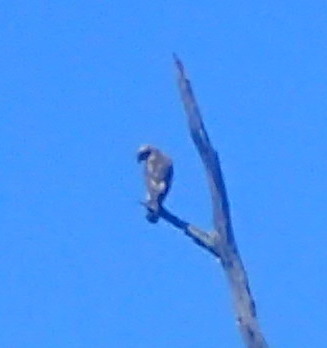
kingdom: Animalia
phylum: Chordata
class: Aves
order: Accipitriformes
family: Accipitridae
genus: Ictinia
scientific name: Ictinia mississippiensis
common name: Mississippi kite
